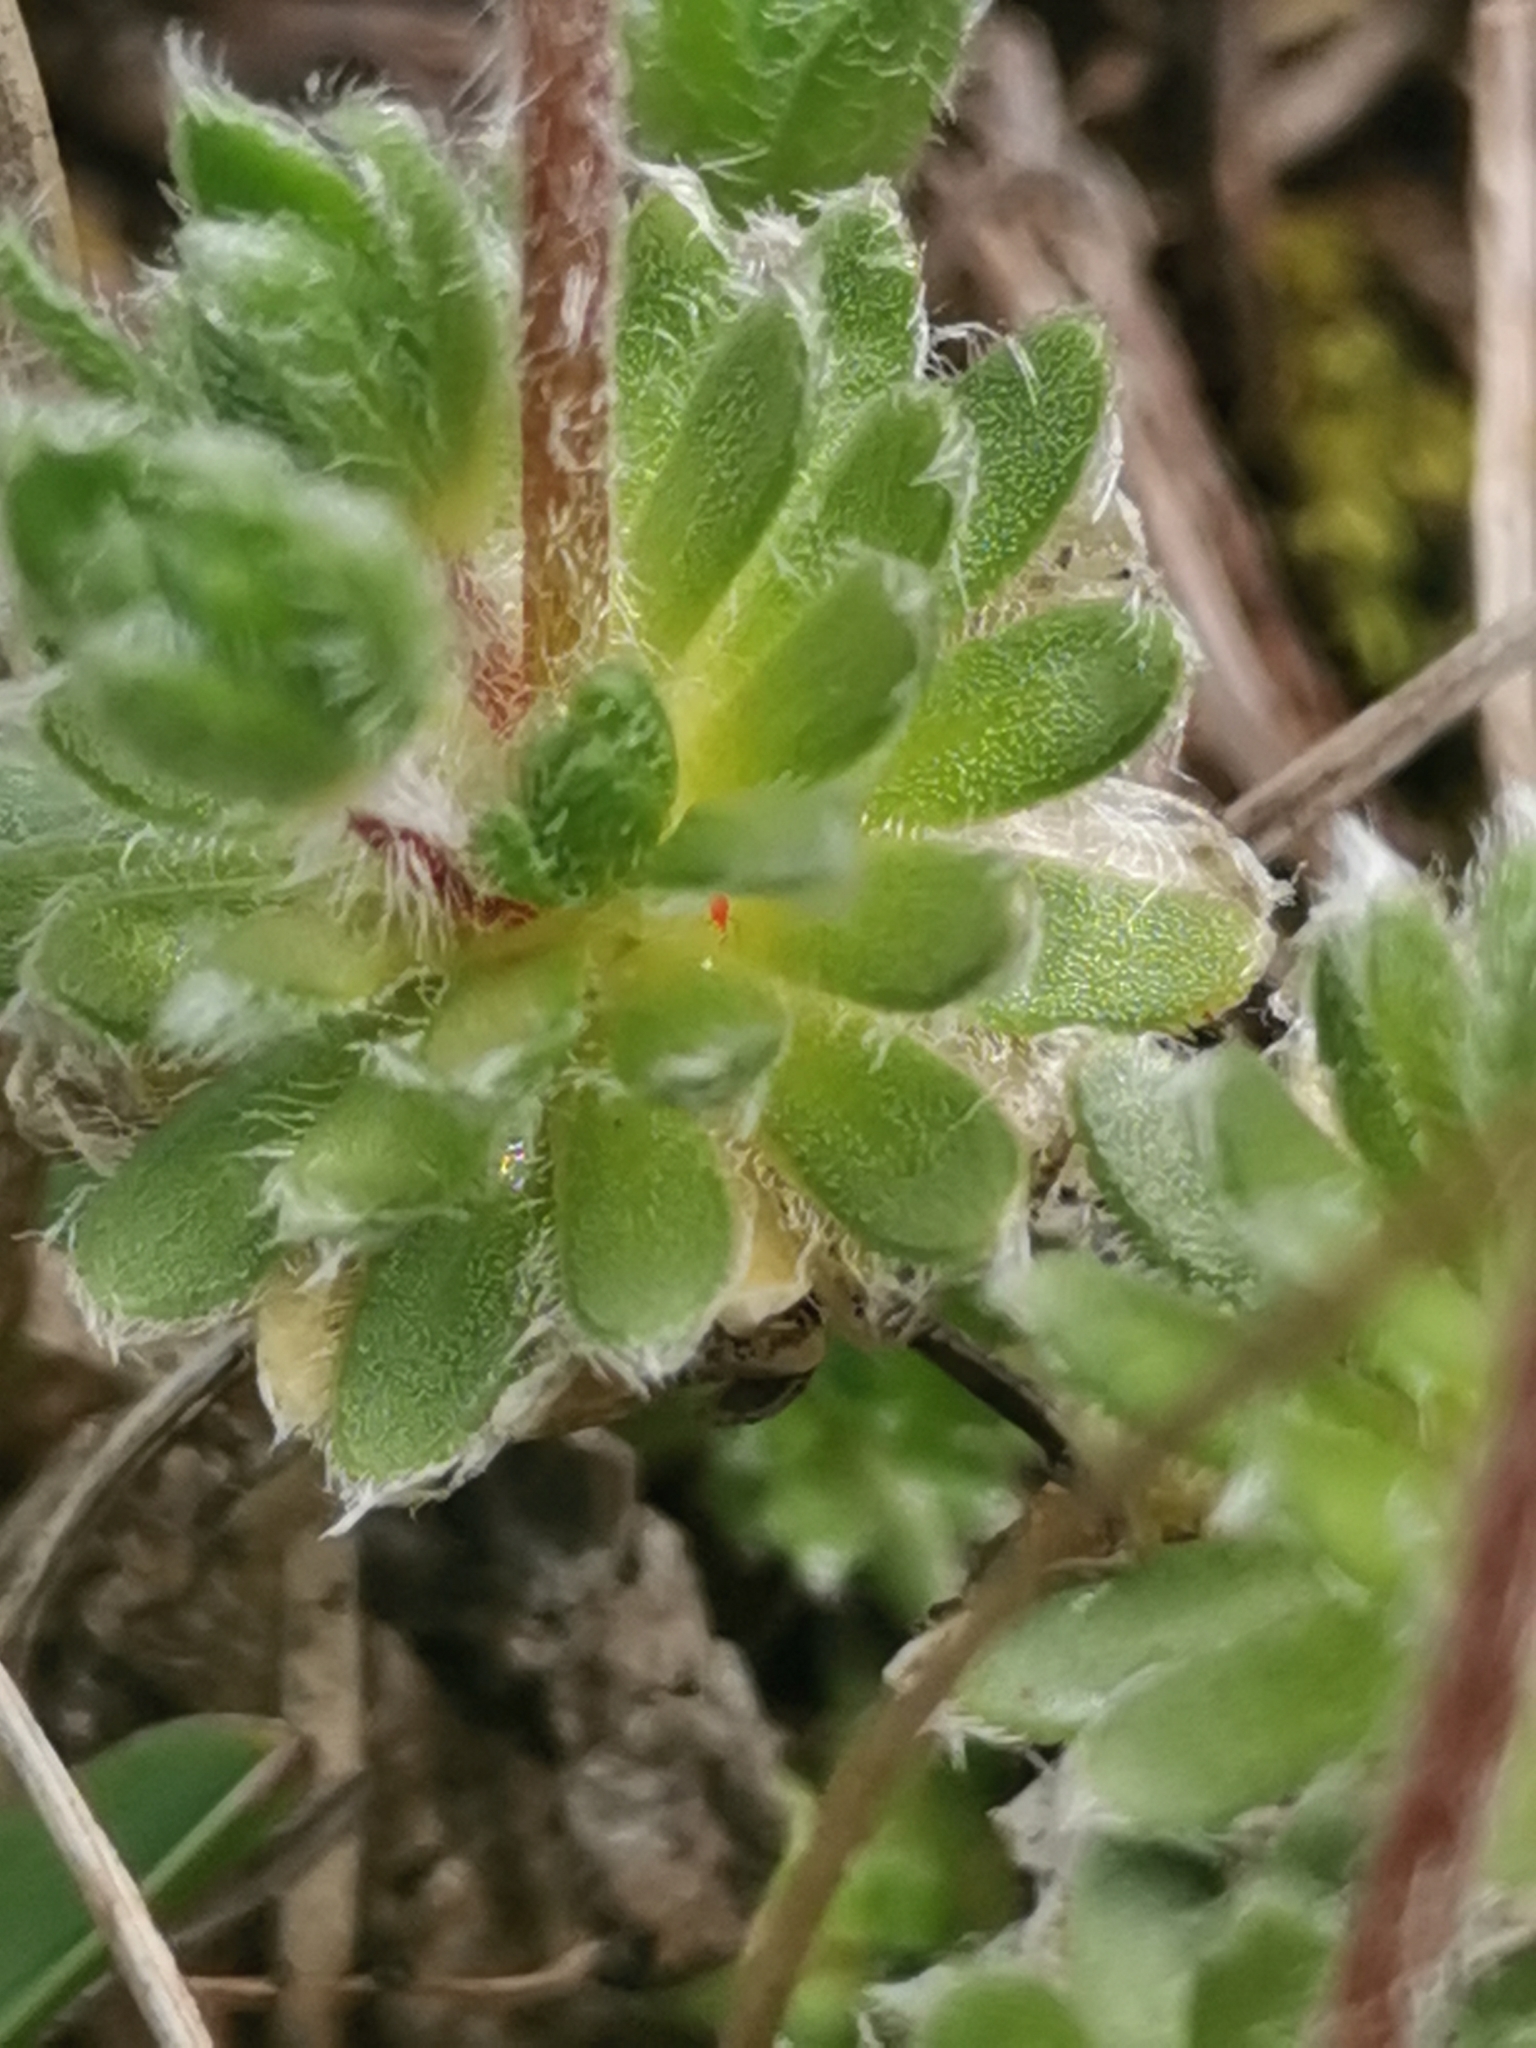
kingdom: Plantae
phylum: Tracheophyta
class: Magnoliopsida
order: Ericales
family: Primulaceae
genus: Androsace
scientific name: Androsace villosa
